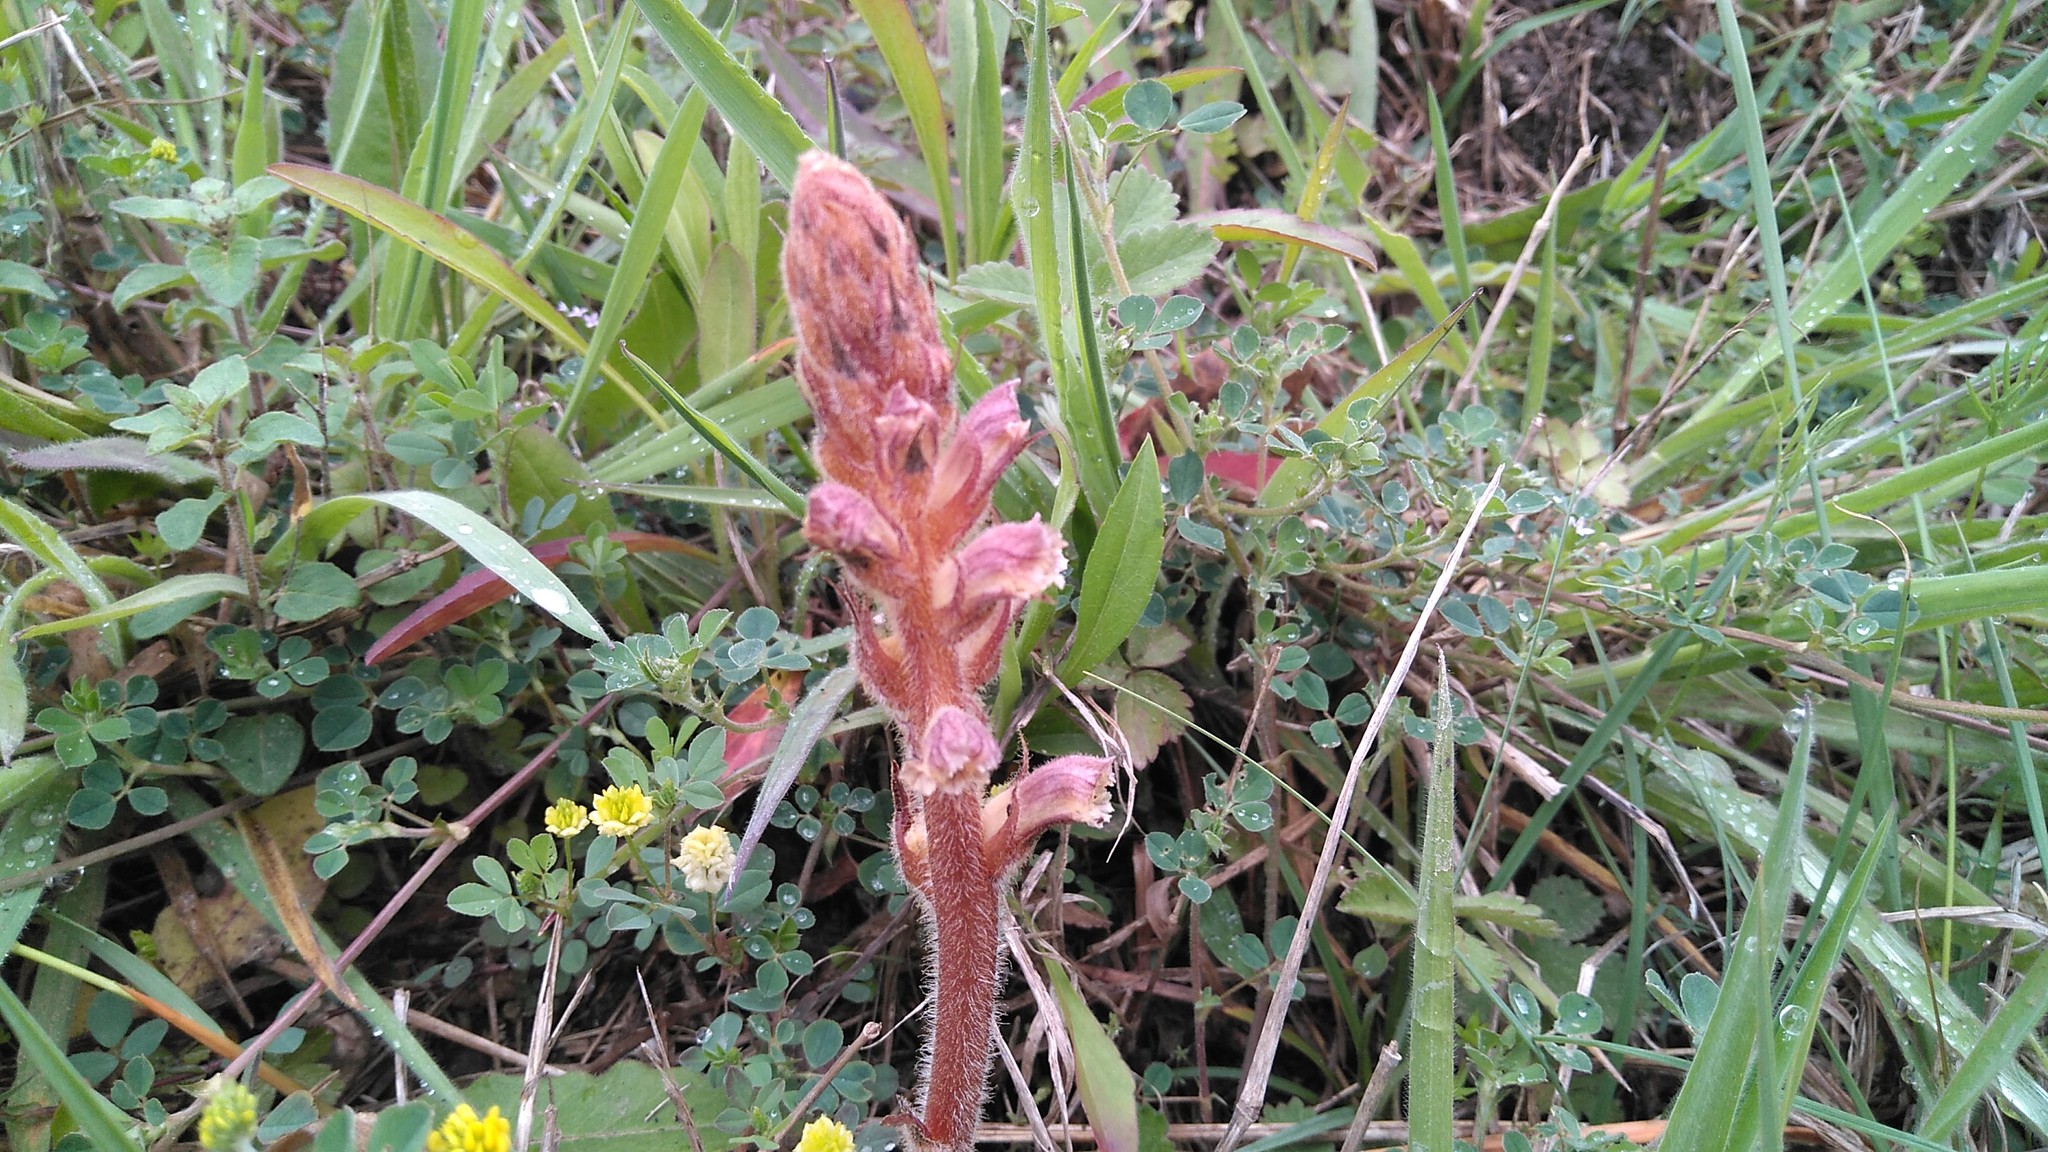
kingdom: Plantae
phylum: Tracheophyta
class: Magnoliopsida
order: Lamiales
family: Orobanchaceae
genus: Orobanche
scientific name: Orobanche minor
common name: Common broomrape
